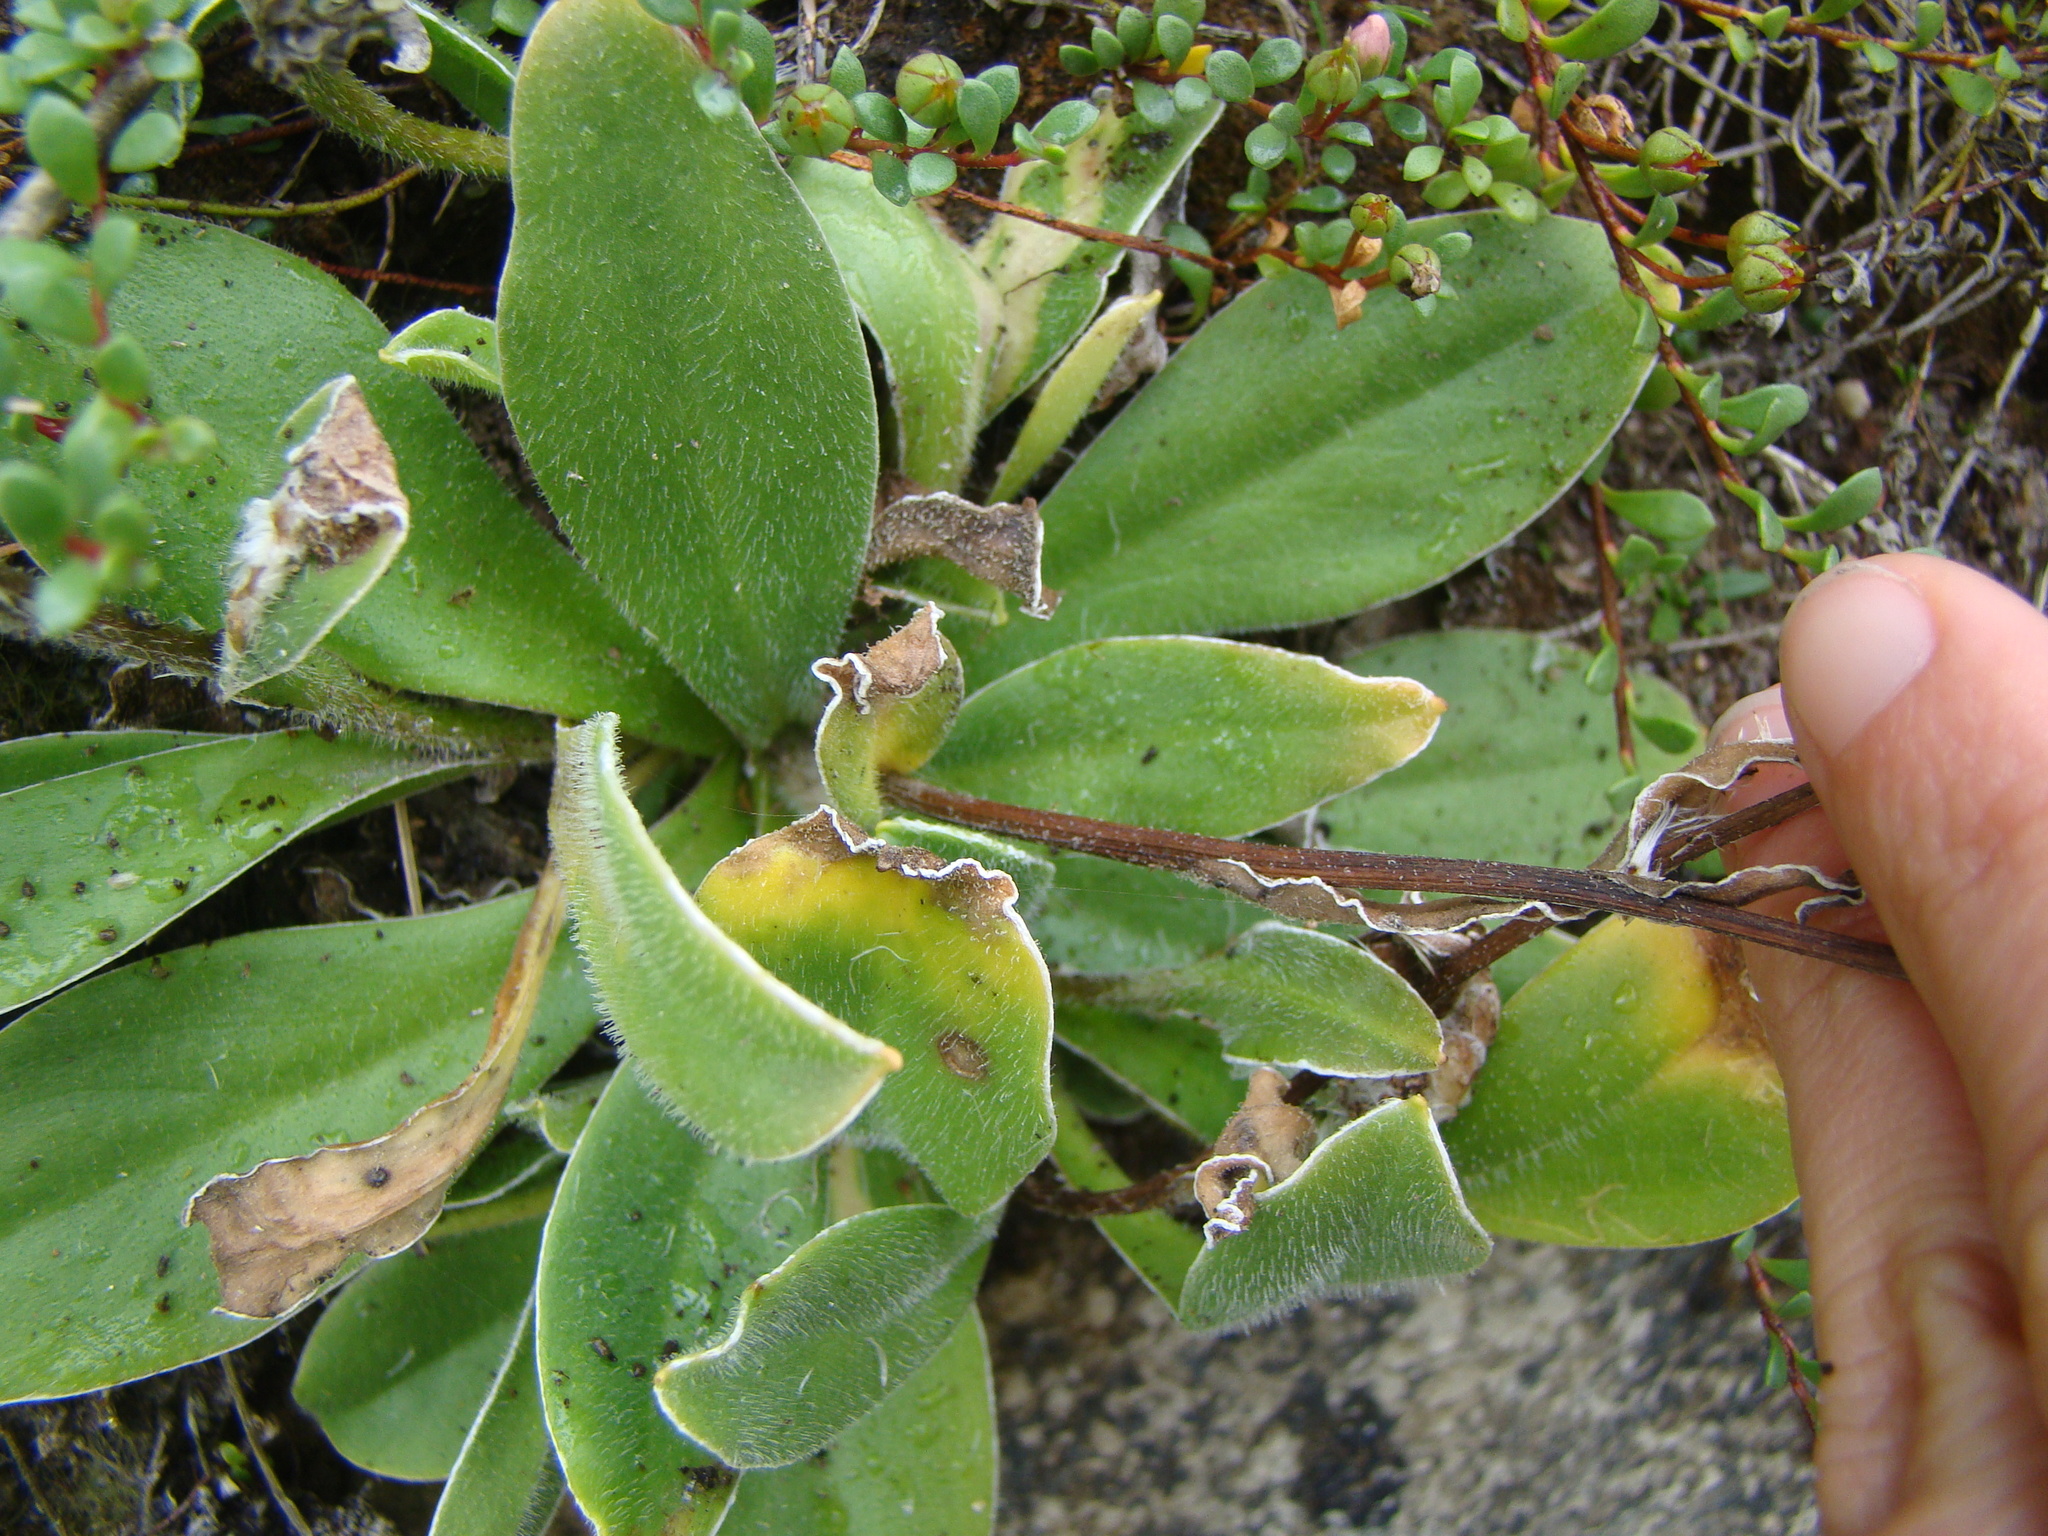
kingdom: Plantae
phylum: Tracheophyta
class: Magnoliopsida
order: Asterales
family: Asteraceae
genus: Craspedia
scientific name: Craspedia
